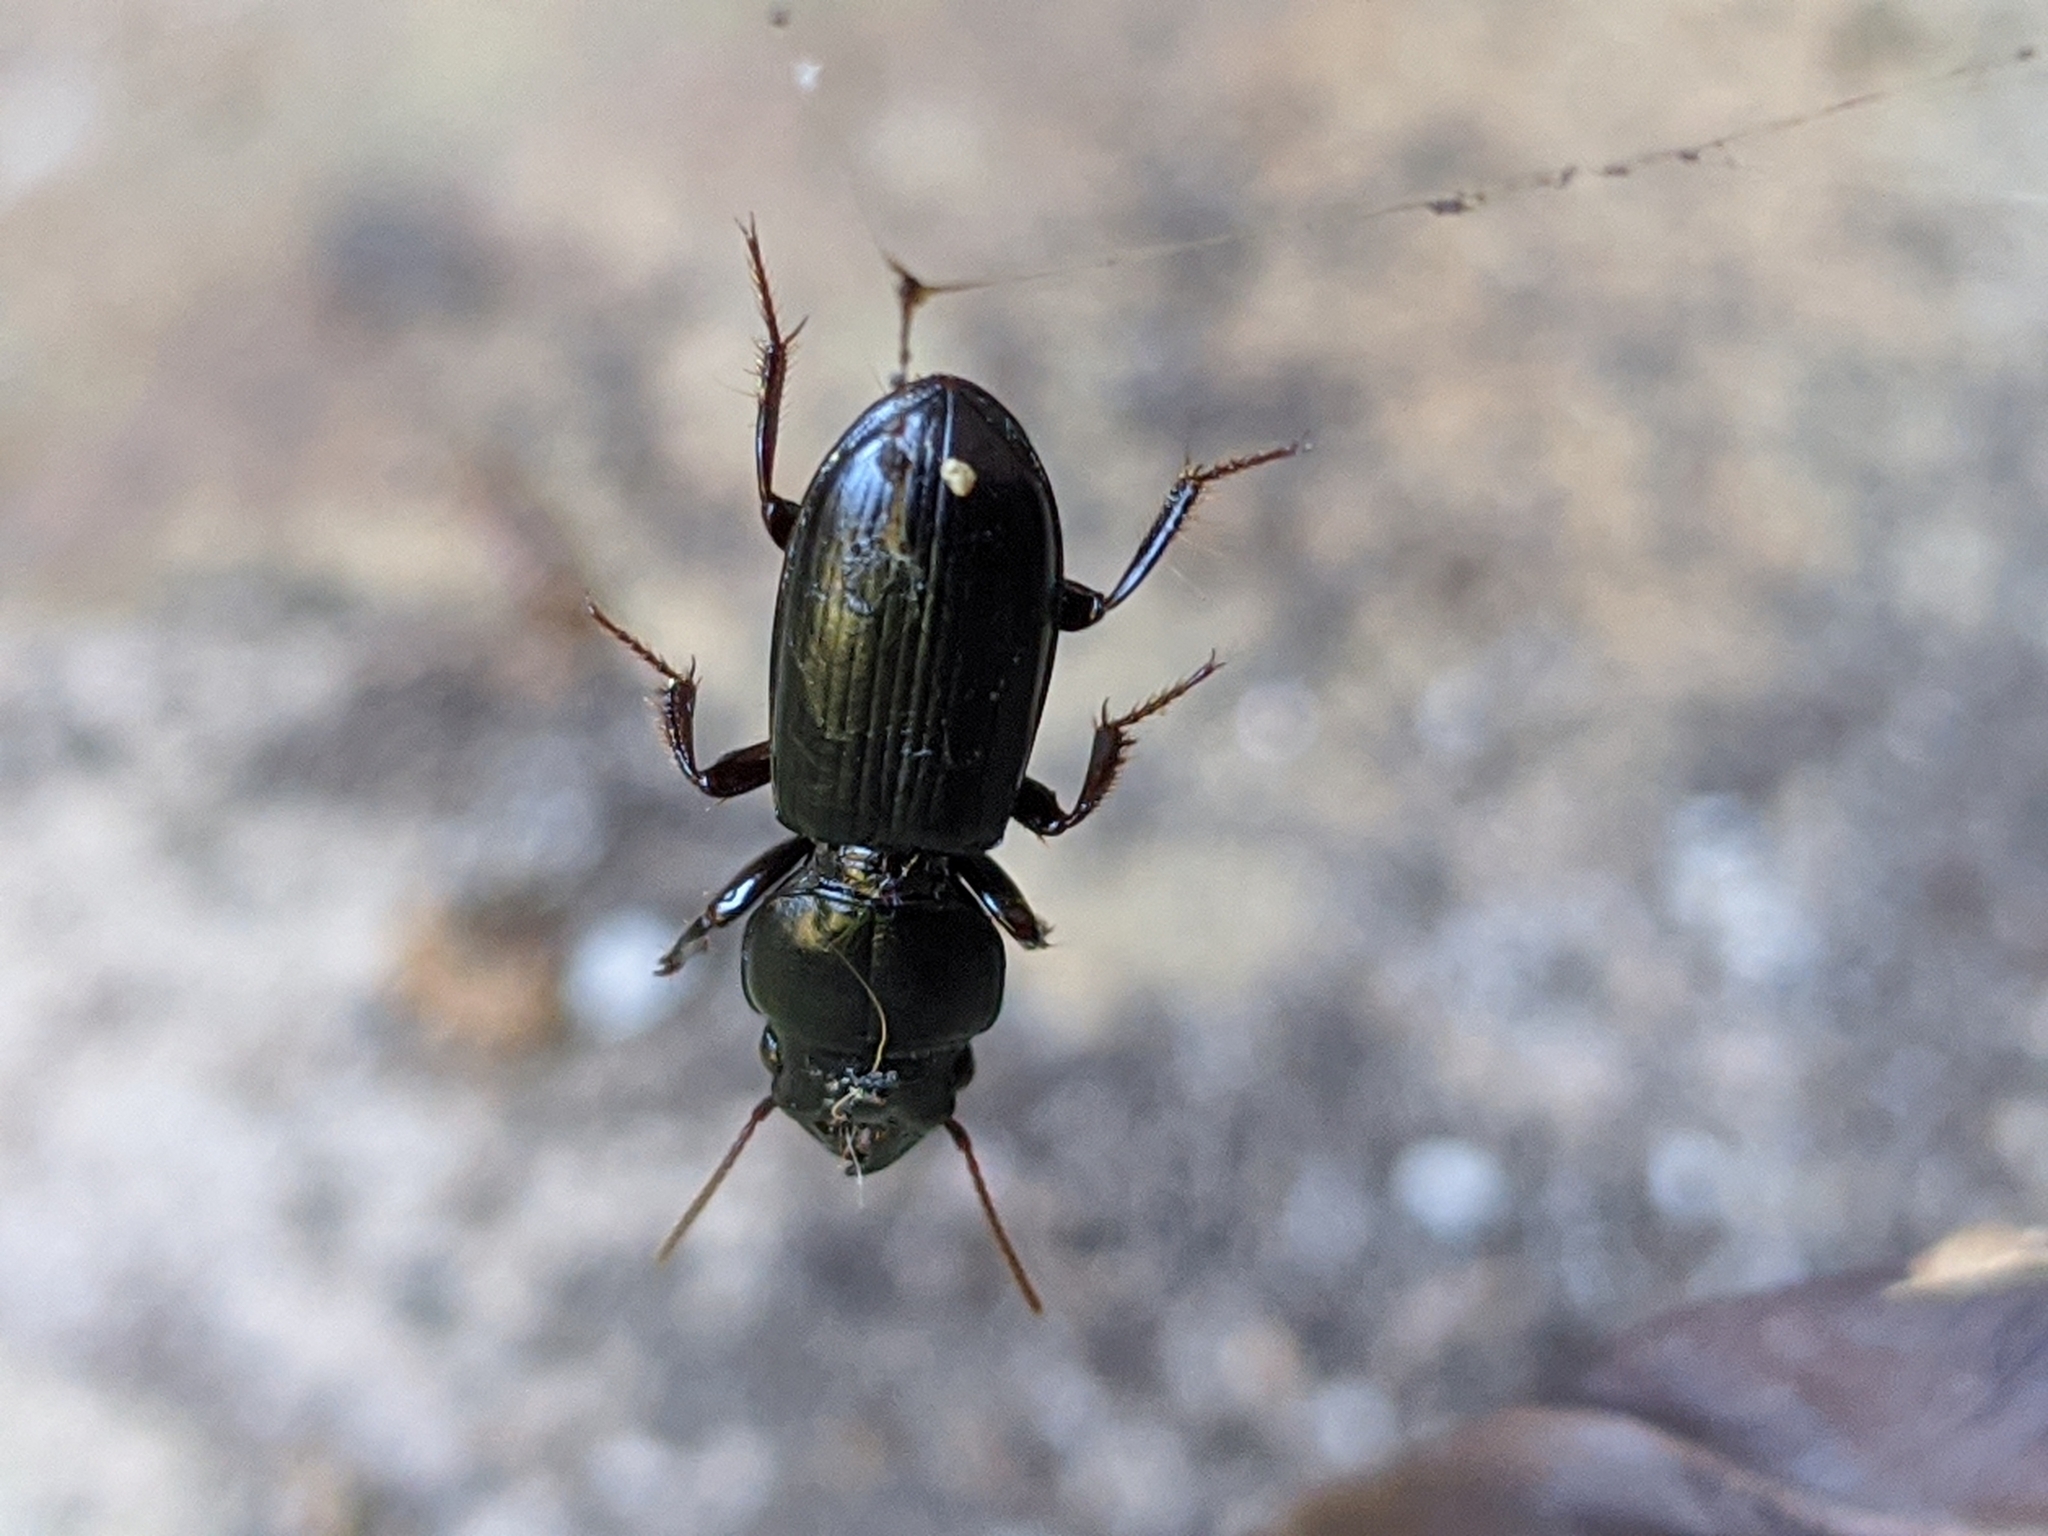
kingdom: Animalia
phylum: Arthropoda
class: Insecta
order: Coleoptera
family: Carabidae
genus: Scarites
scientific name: Scarites subterraneus
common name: Big-headed ground beetle
